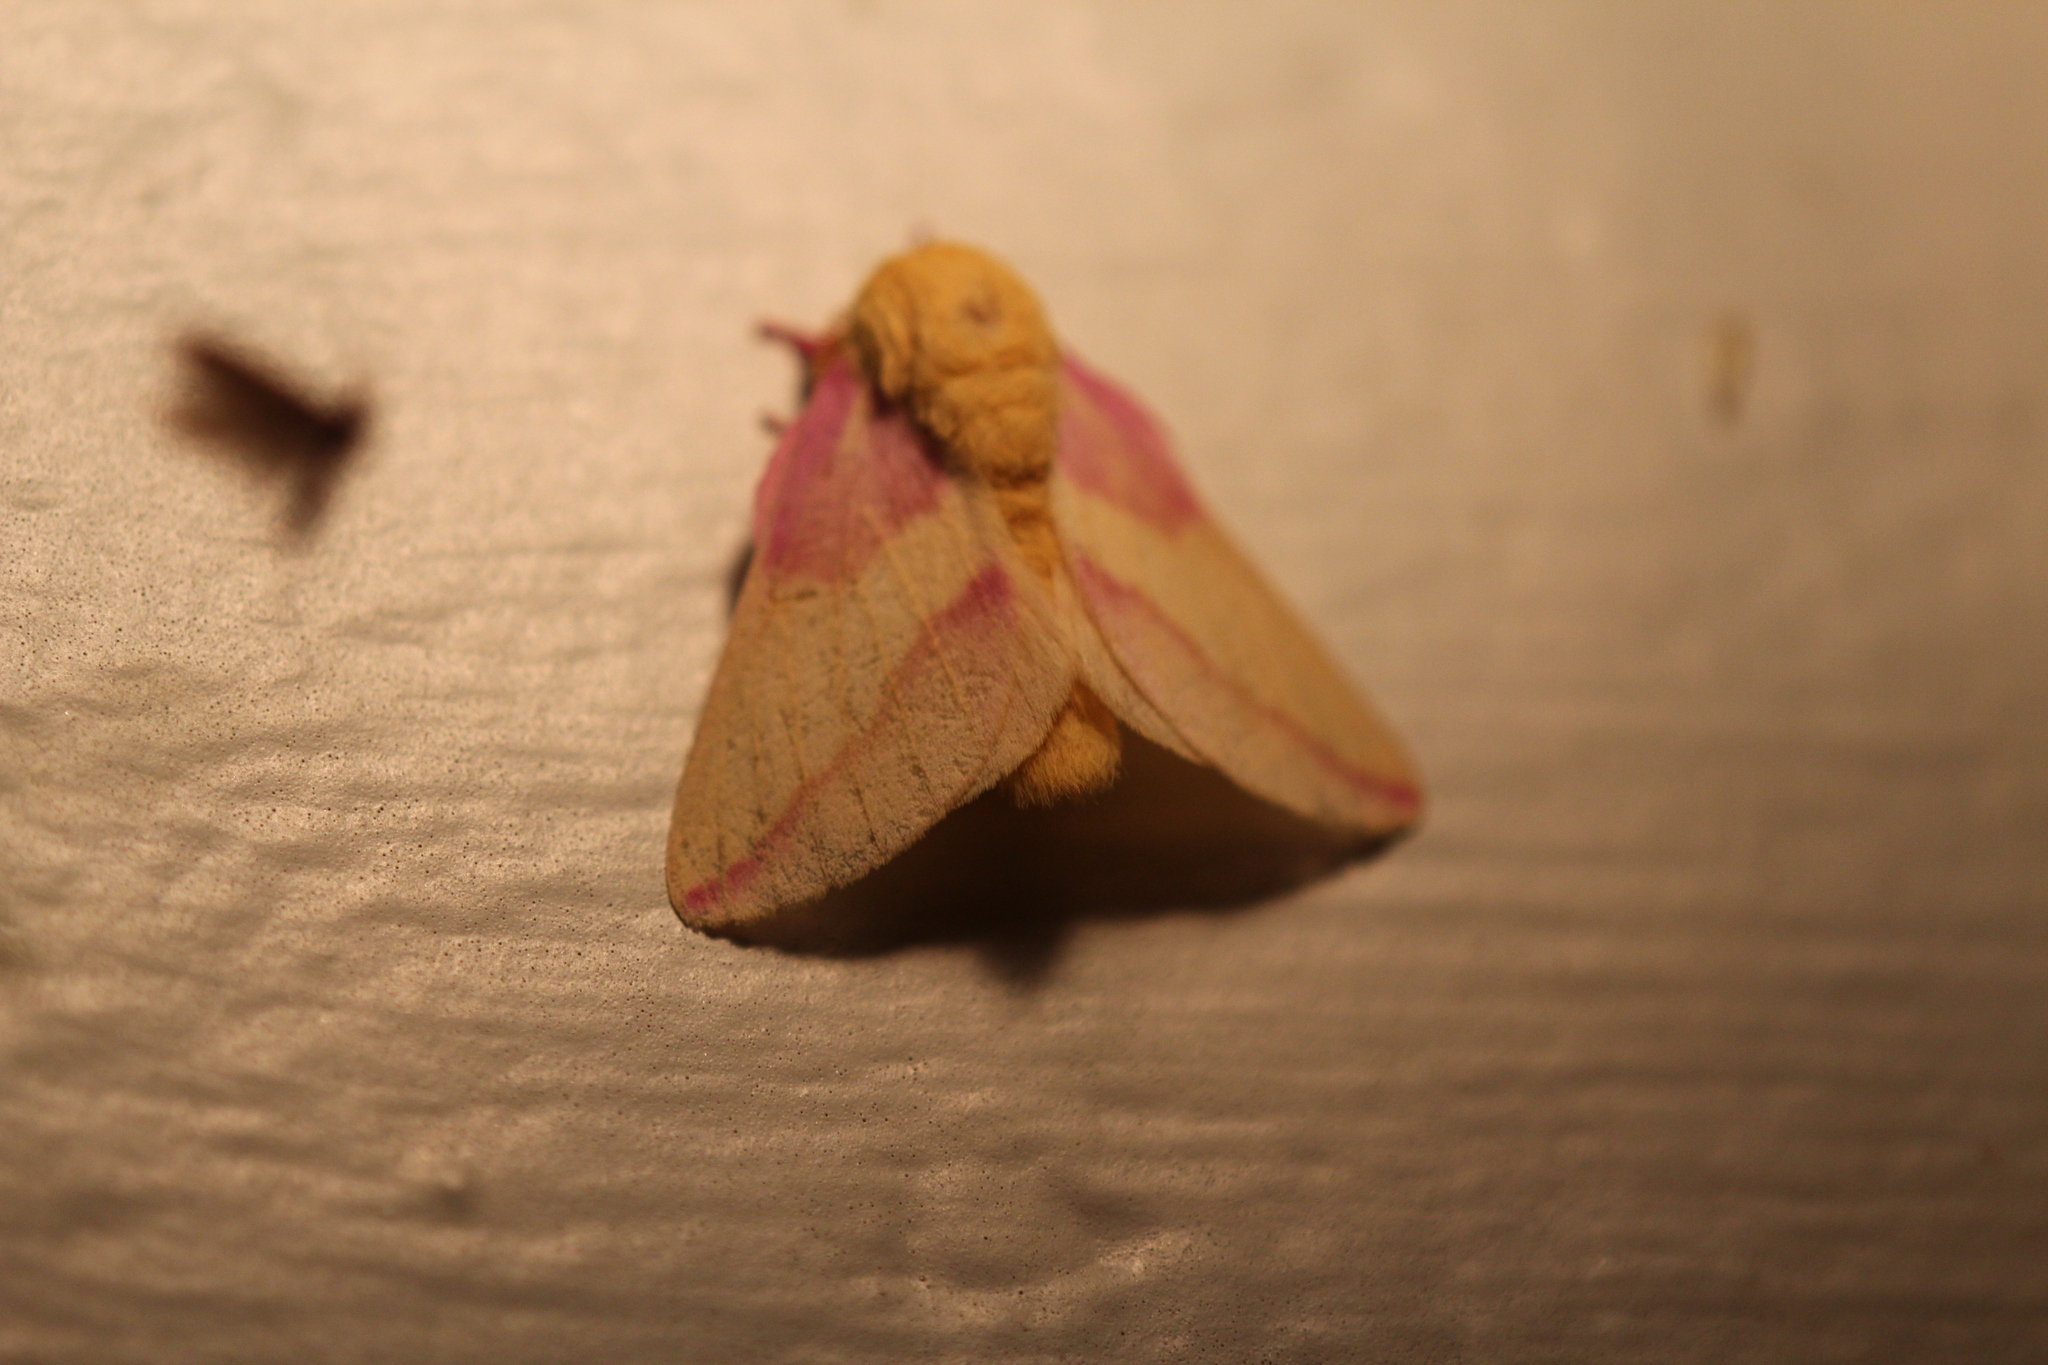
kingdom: Animalia
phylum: Arthropoda
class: Insecta
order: Lepidoptera
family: Saturniidae
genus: Dryocampa
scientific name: Dryocampa rubicunda
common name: Rosy maple moth
